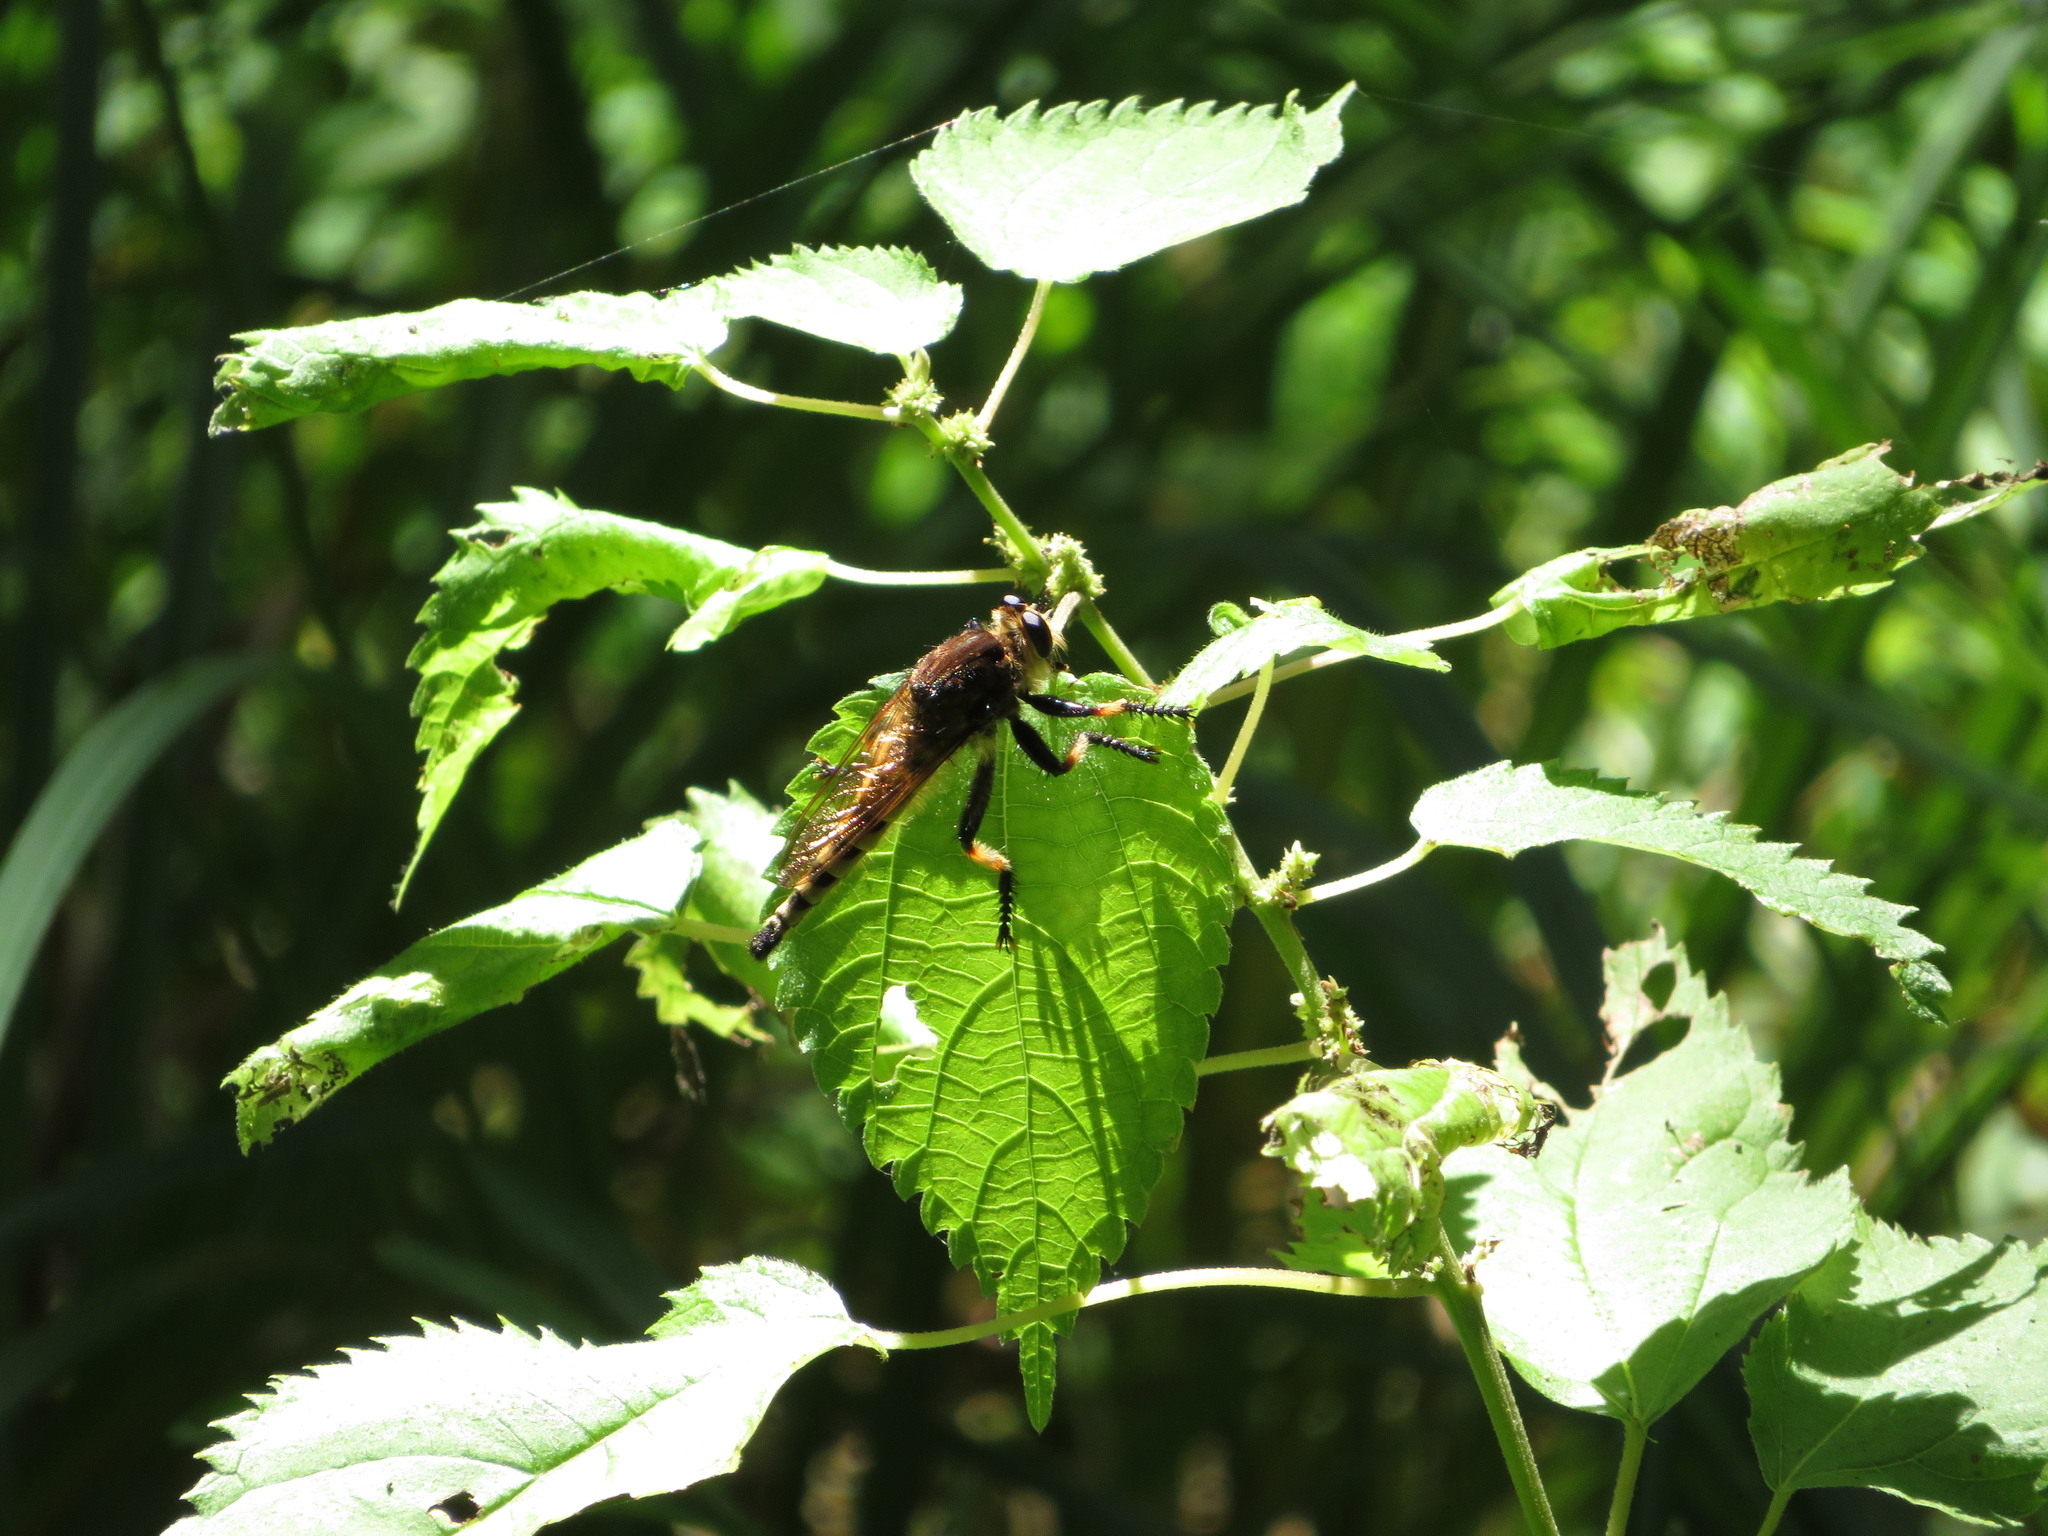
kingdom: Animalia
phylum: Arthropoda
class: Insecta
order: Diptera
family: Asilidae
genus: Promachus
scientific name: Promachus rufipes
